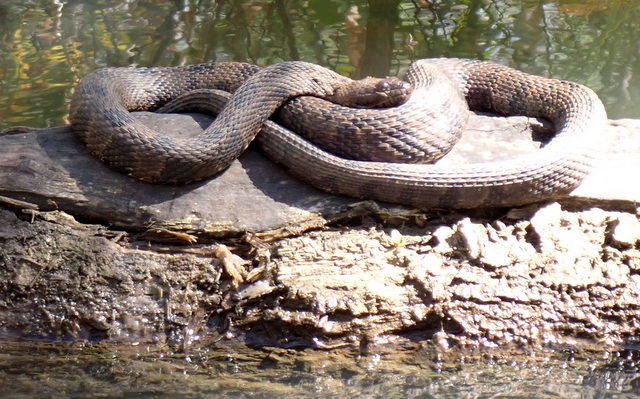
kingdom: Animalia
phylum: Chordata
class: Squamata
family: Colubridae
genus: Nerodia
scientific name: Nerodia taxispilota
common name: Brown water snake
